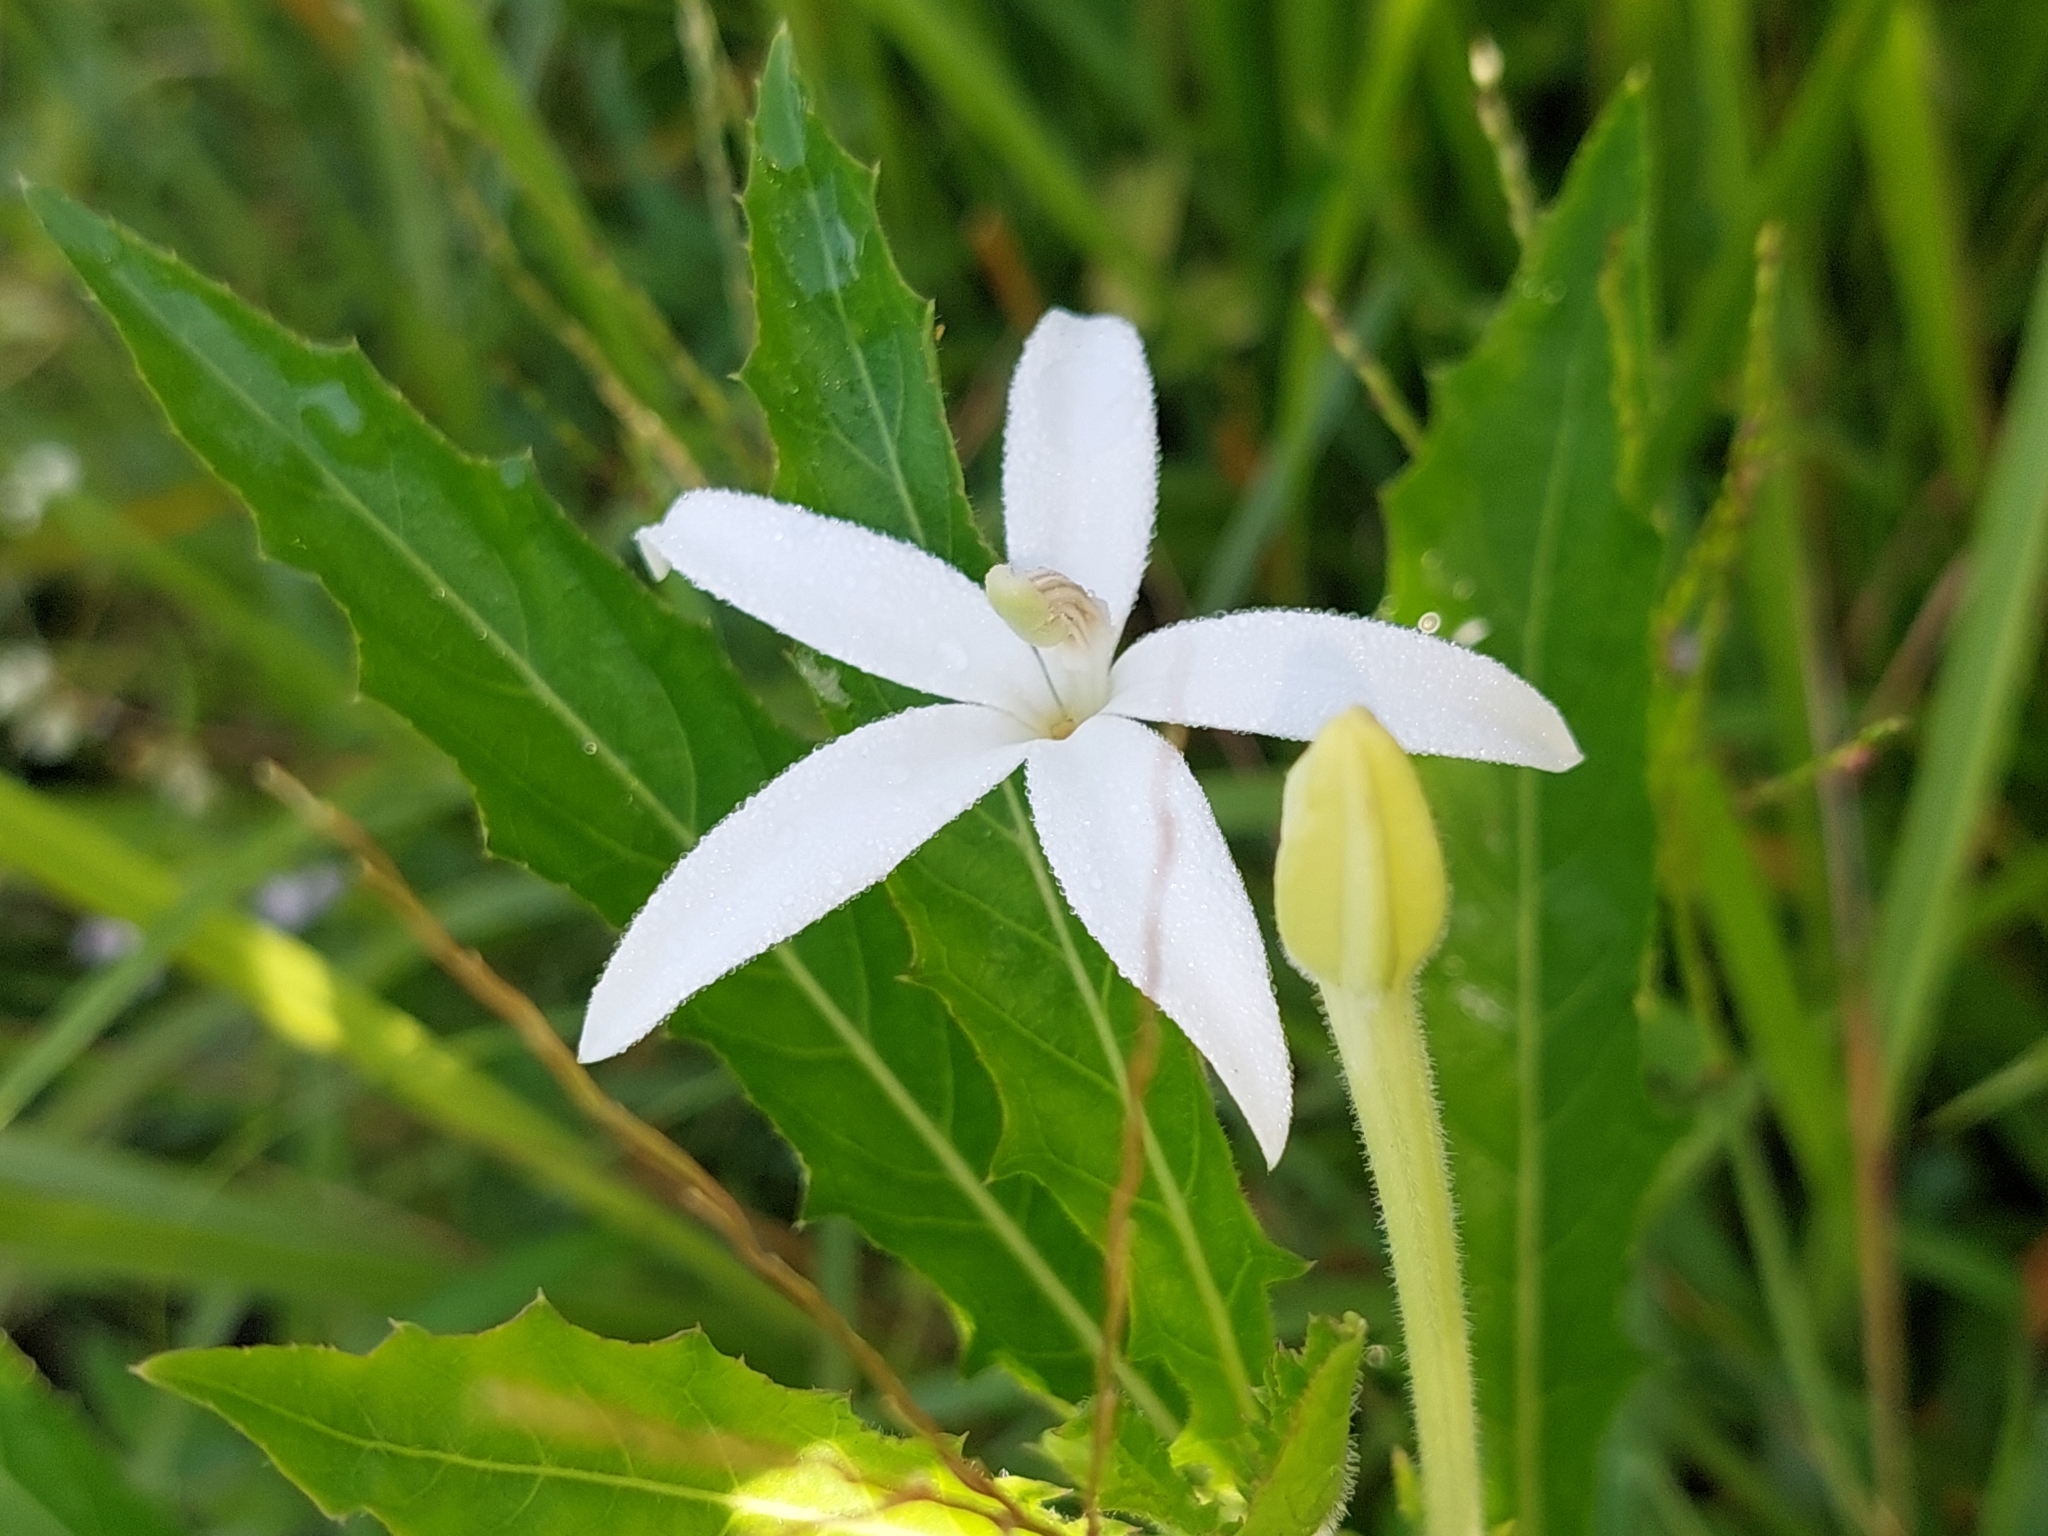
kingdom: Plantae
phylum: Tracheophyta
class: Magnoliopsida
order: Asterales
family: Campanulaceae
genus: Hippobroma
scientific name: Hippobroma longiflora
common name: Madamfate
